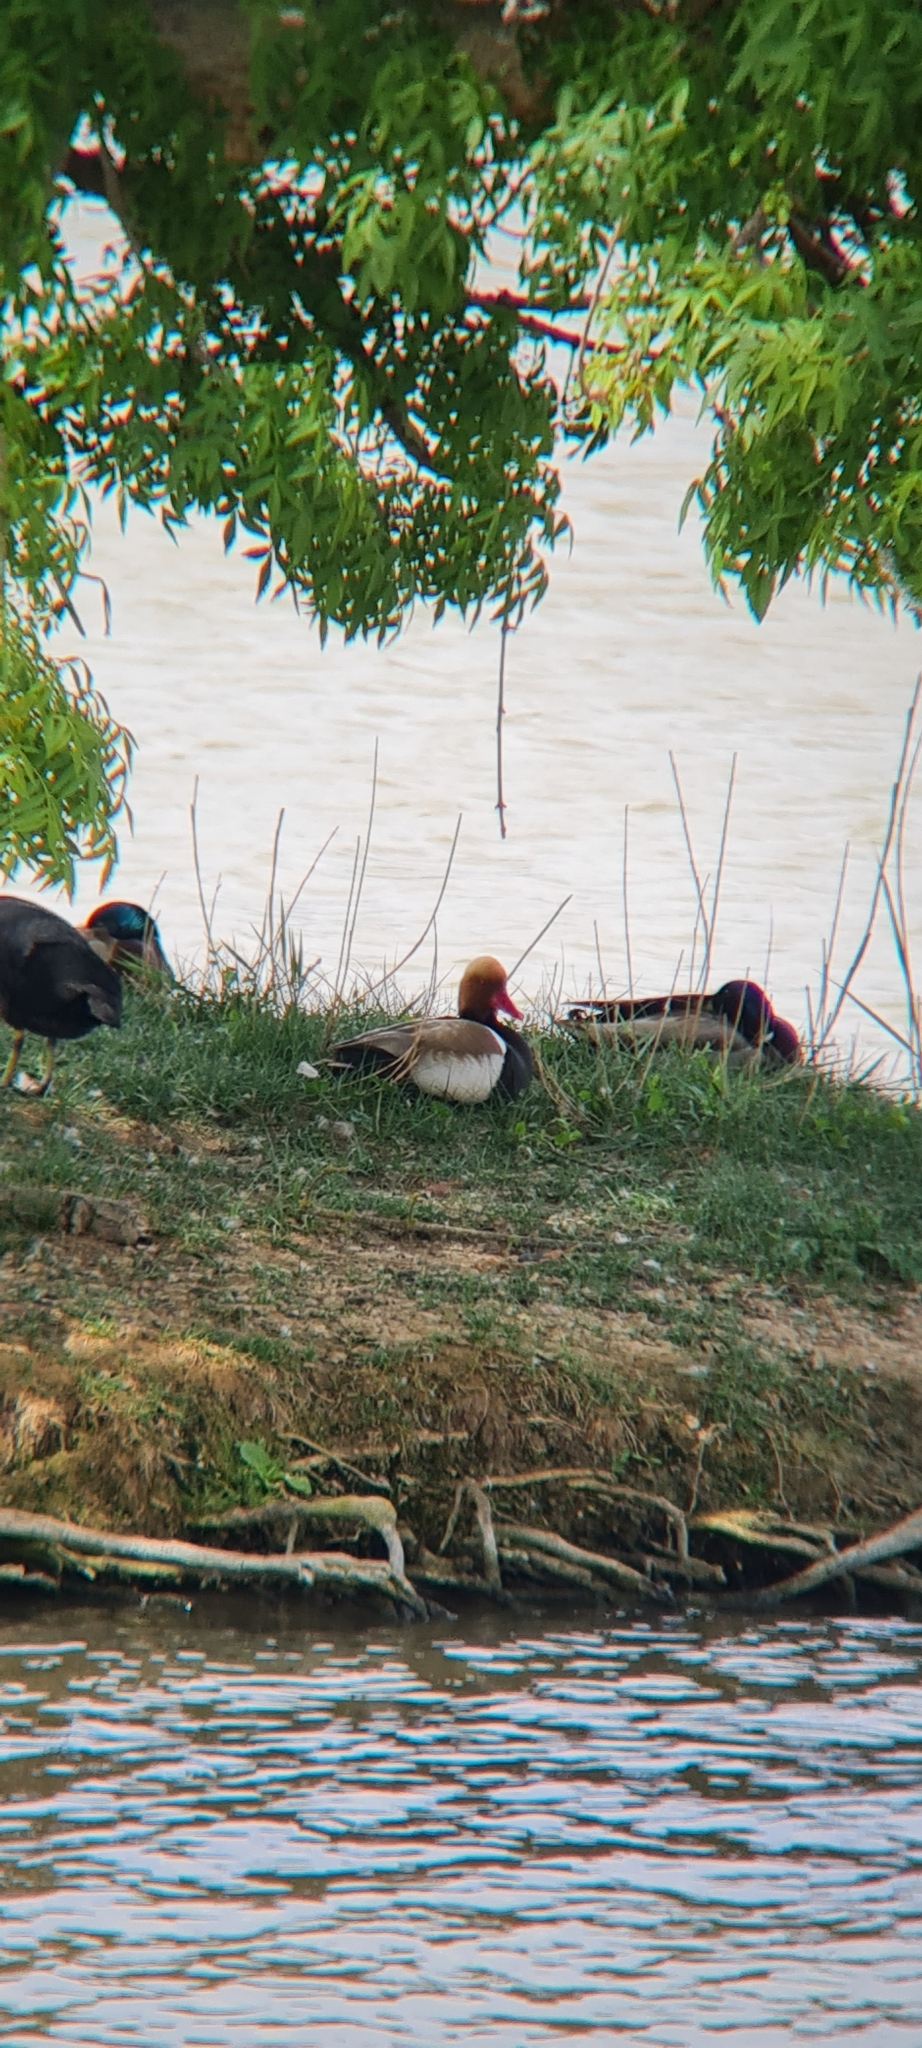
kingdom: Animalia
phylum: Chordata
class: Aves
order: Anseriformes
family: Anatidae
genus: Netta
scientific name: Netta rufina
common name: Red-crested pochard
